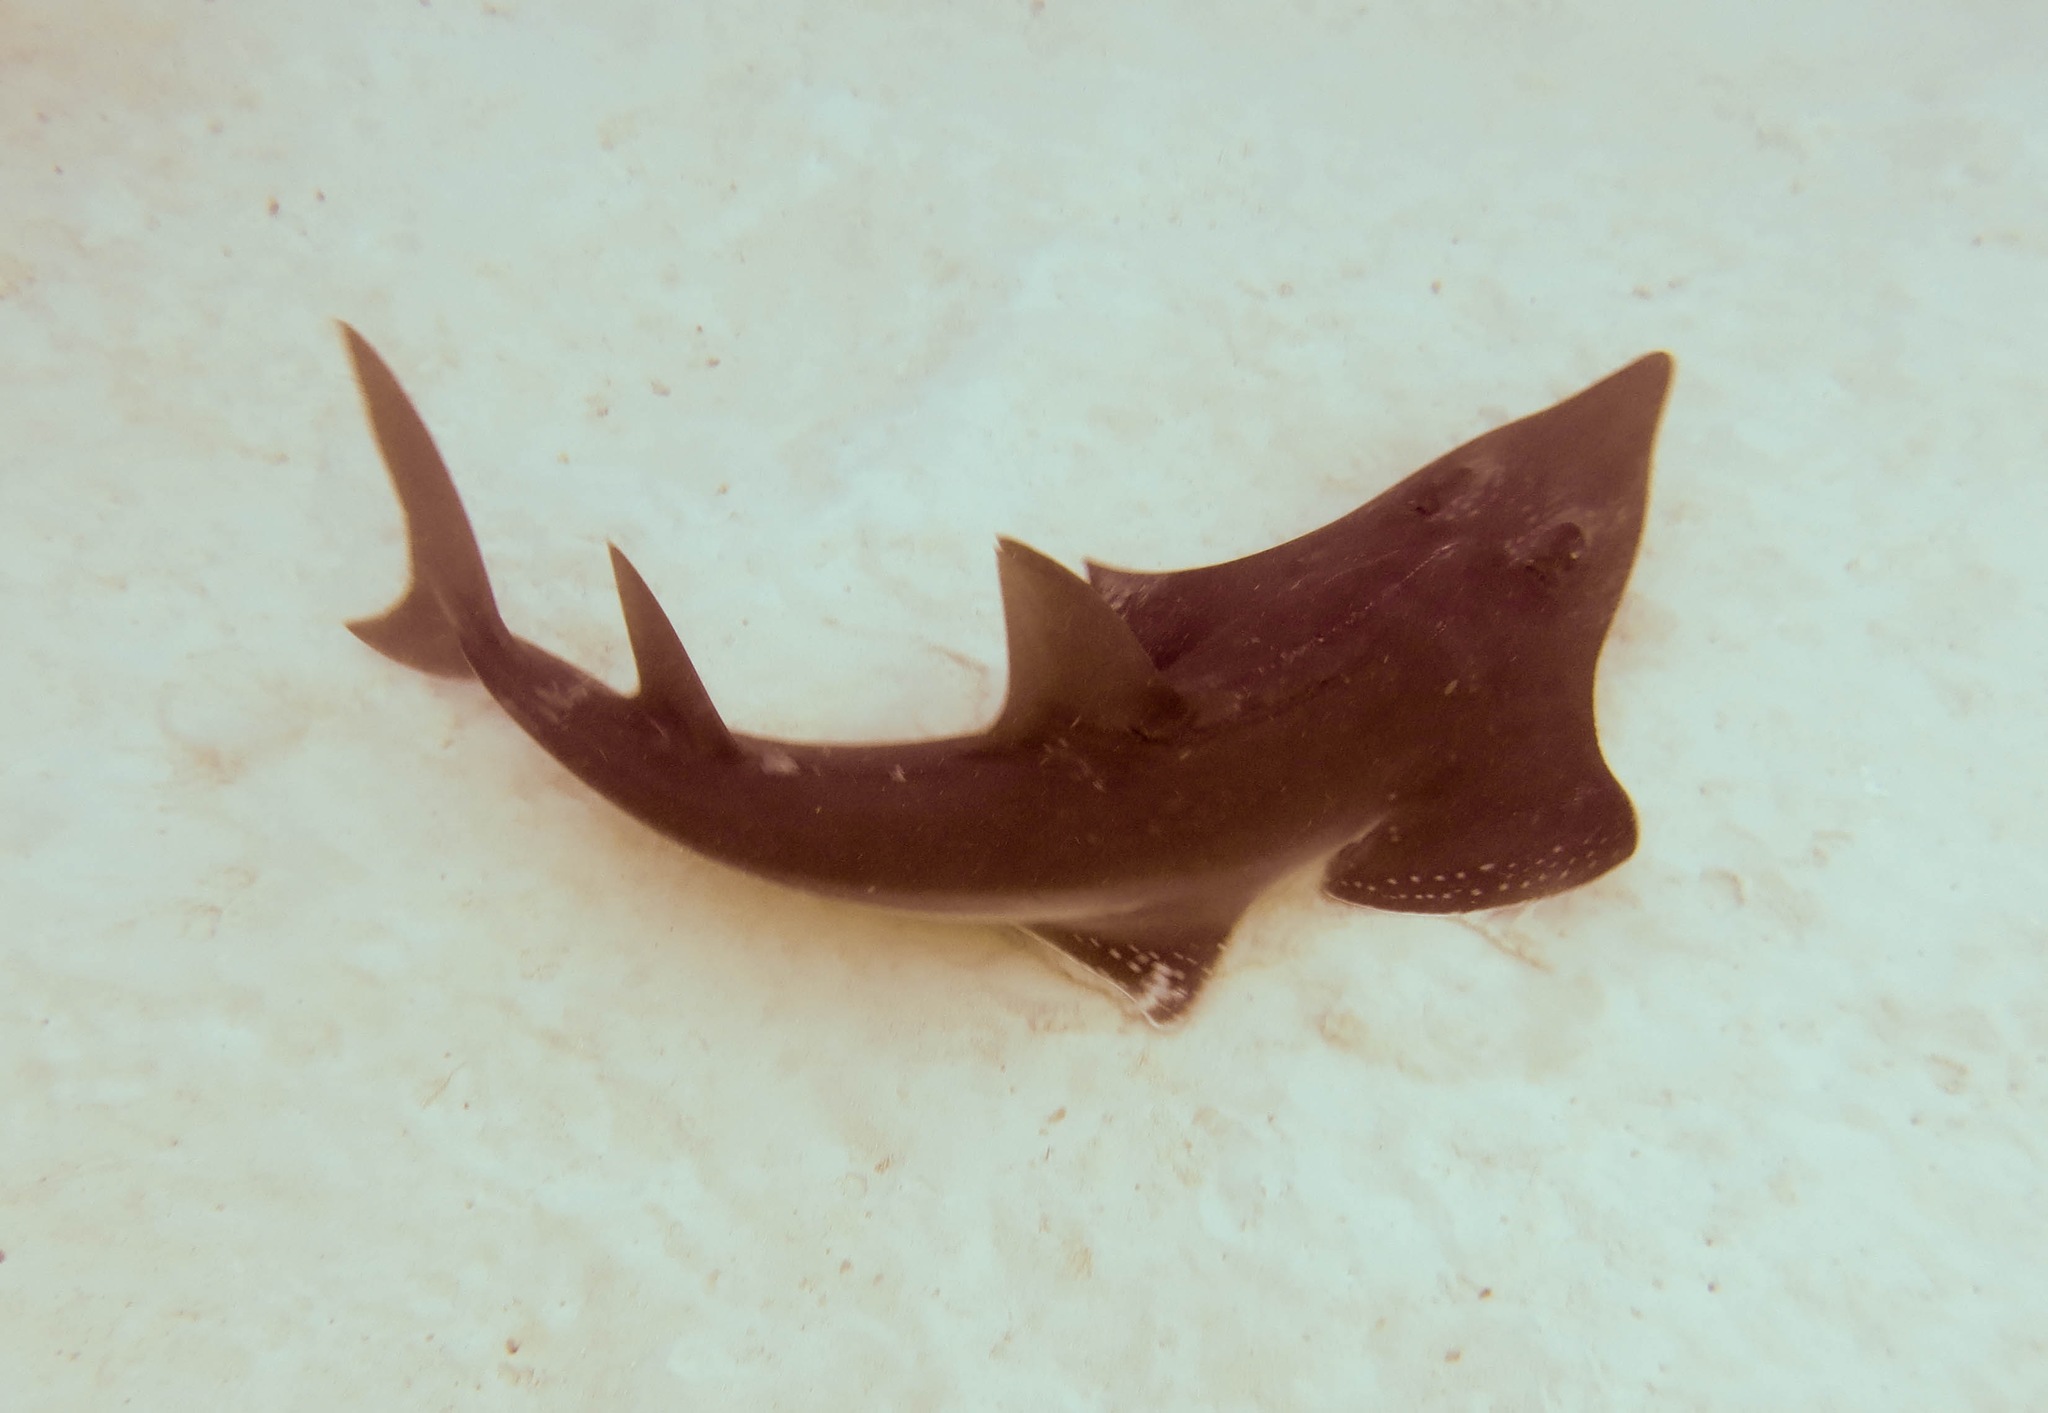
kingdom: Animalia
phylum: Chordata
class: Elasmobranchii
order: Rhinopristiformes
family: Rhinidae
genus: Rhynchobatus
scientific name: Rhynchobatus australiae
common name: Whitespotted wedgefish
